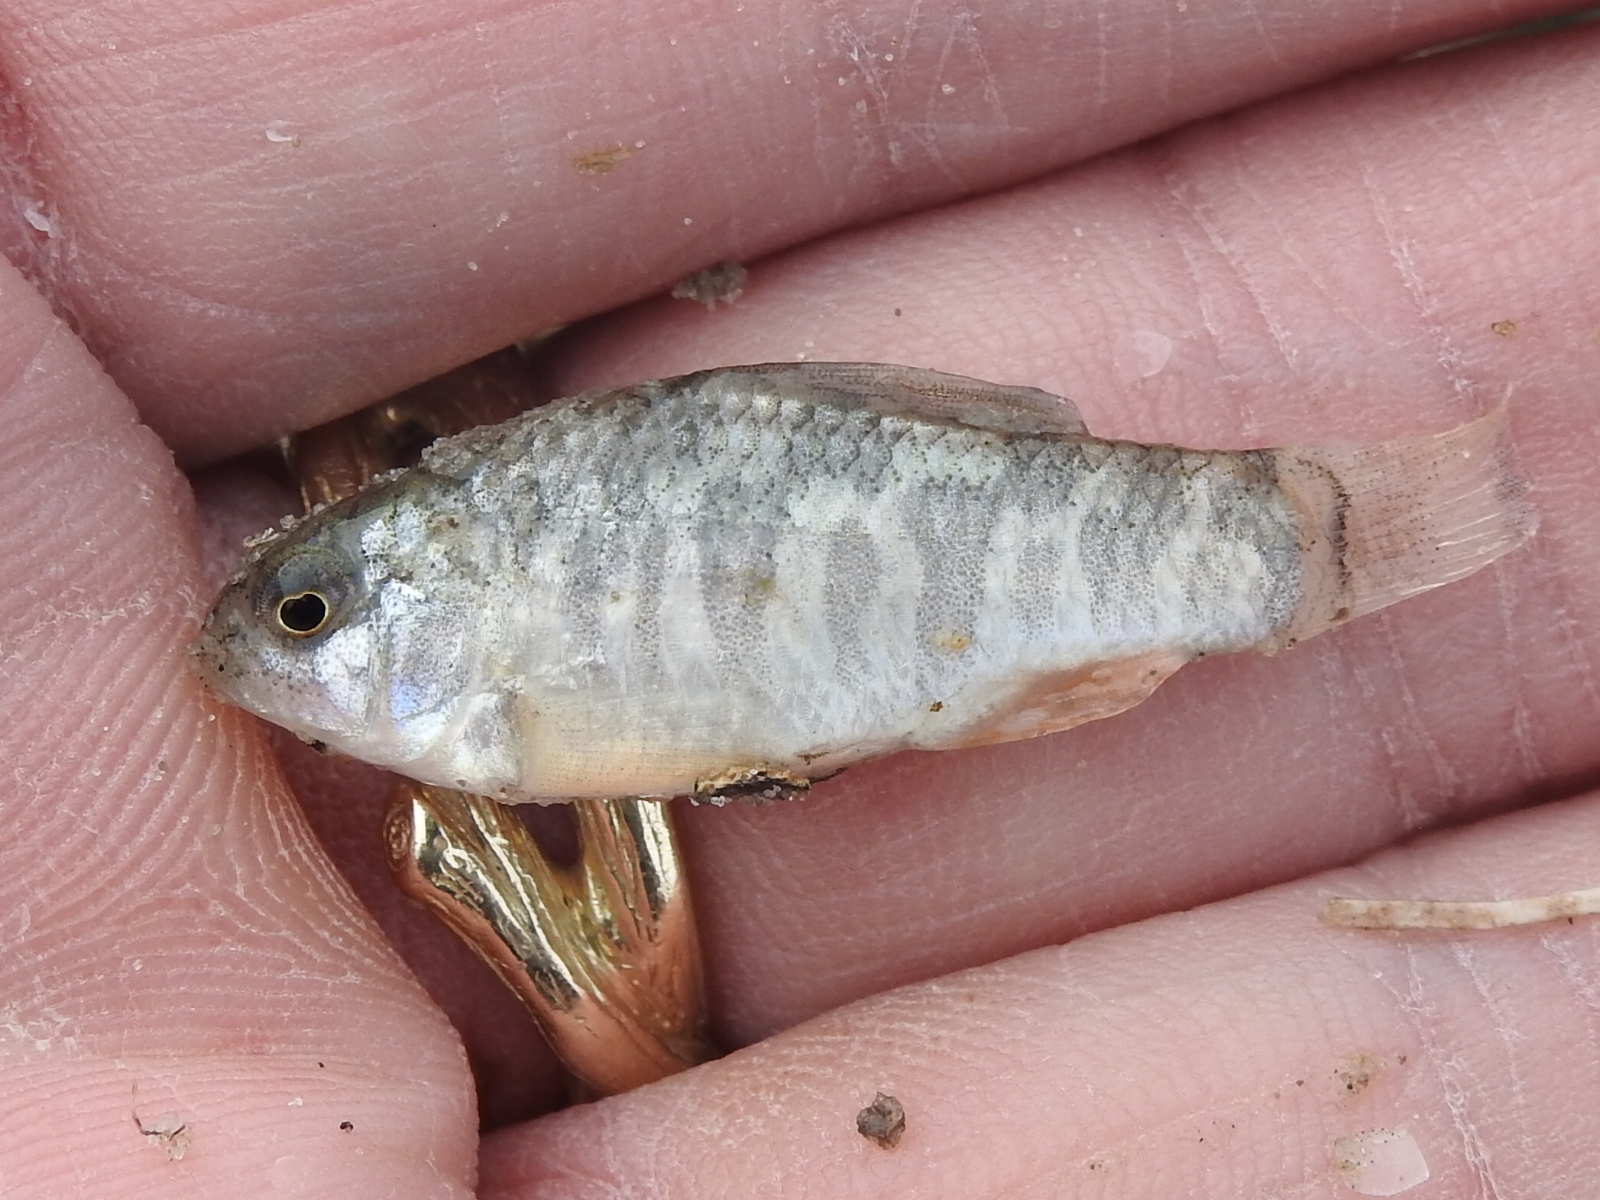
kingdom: Animalia
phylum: Chordata
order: Cyprinodontiformes
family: Cyprinodontidae
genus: Cyprinodon
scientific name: Cyprinodon variegatus
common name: Sheepshead minnow
